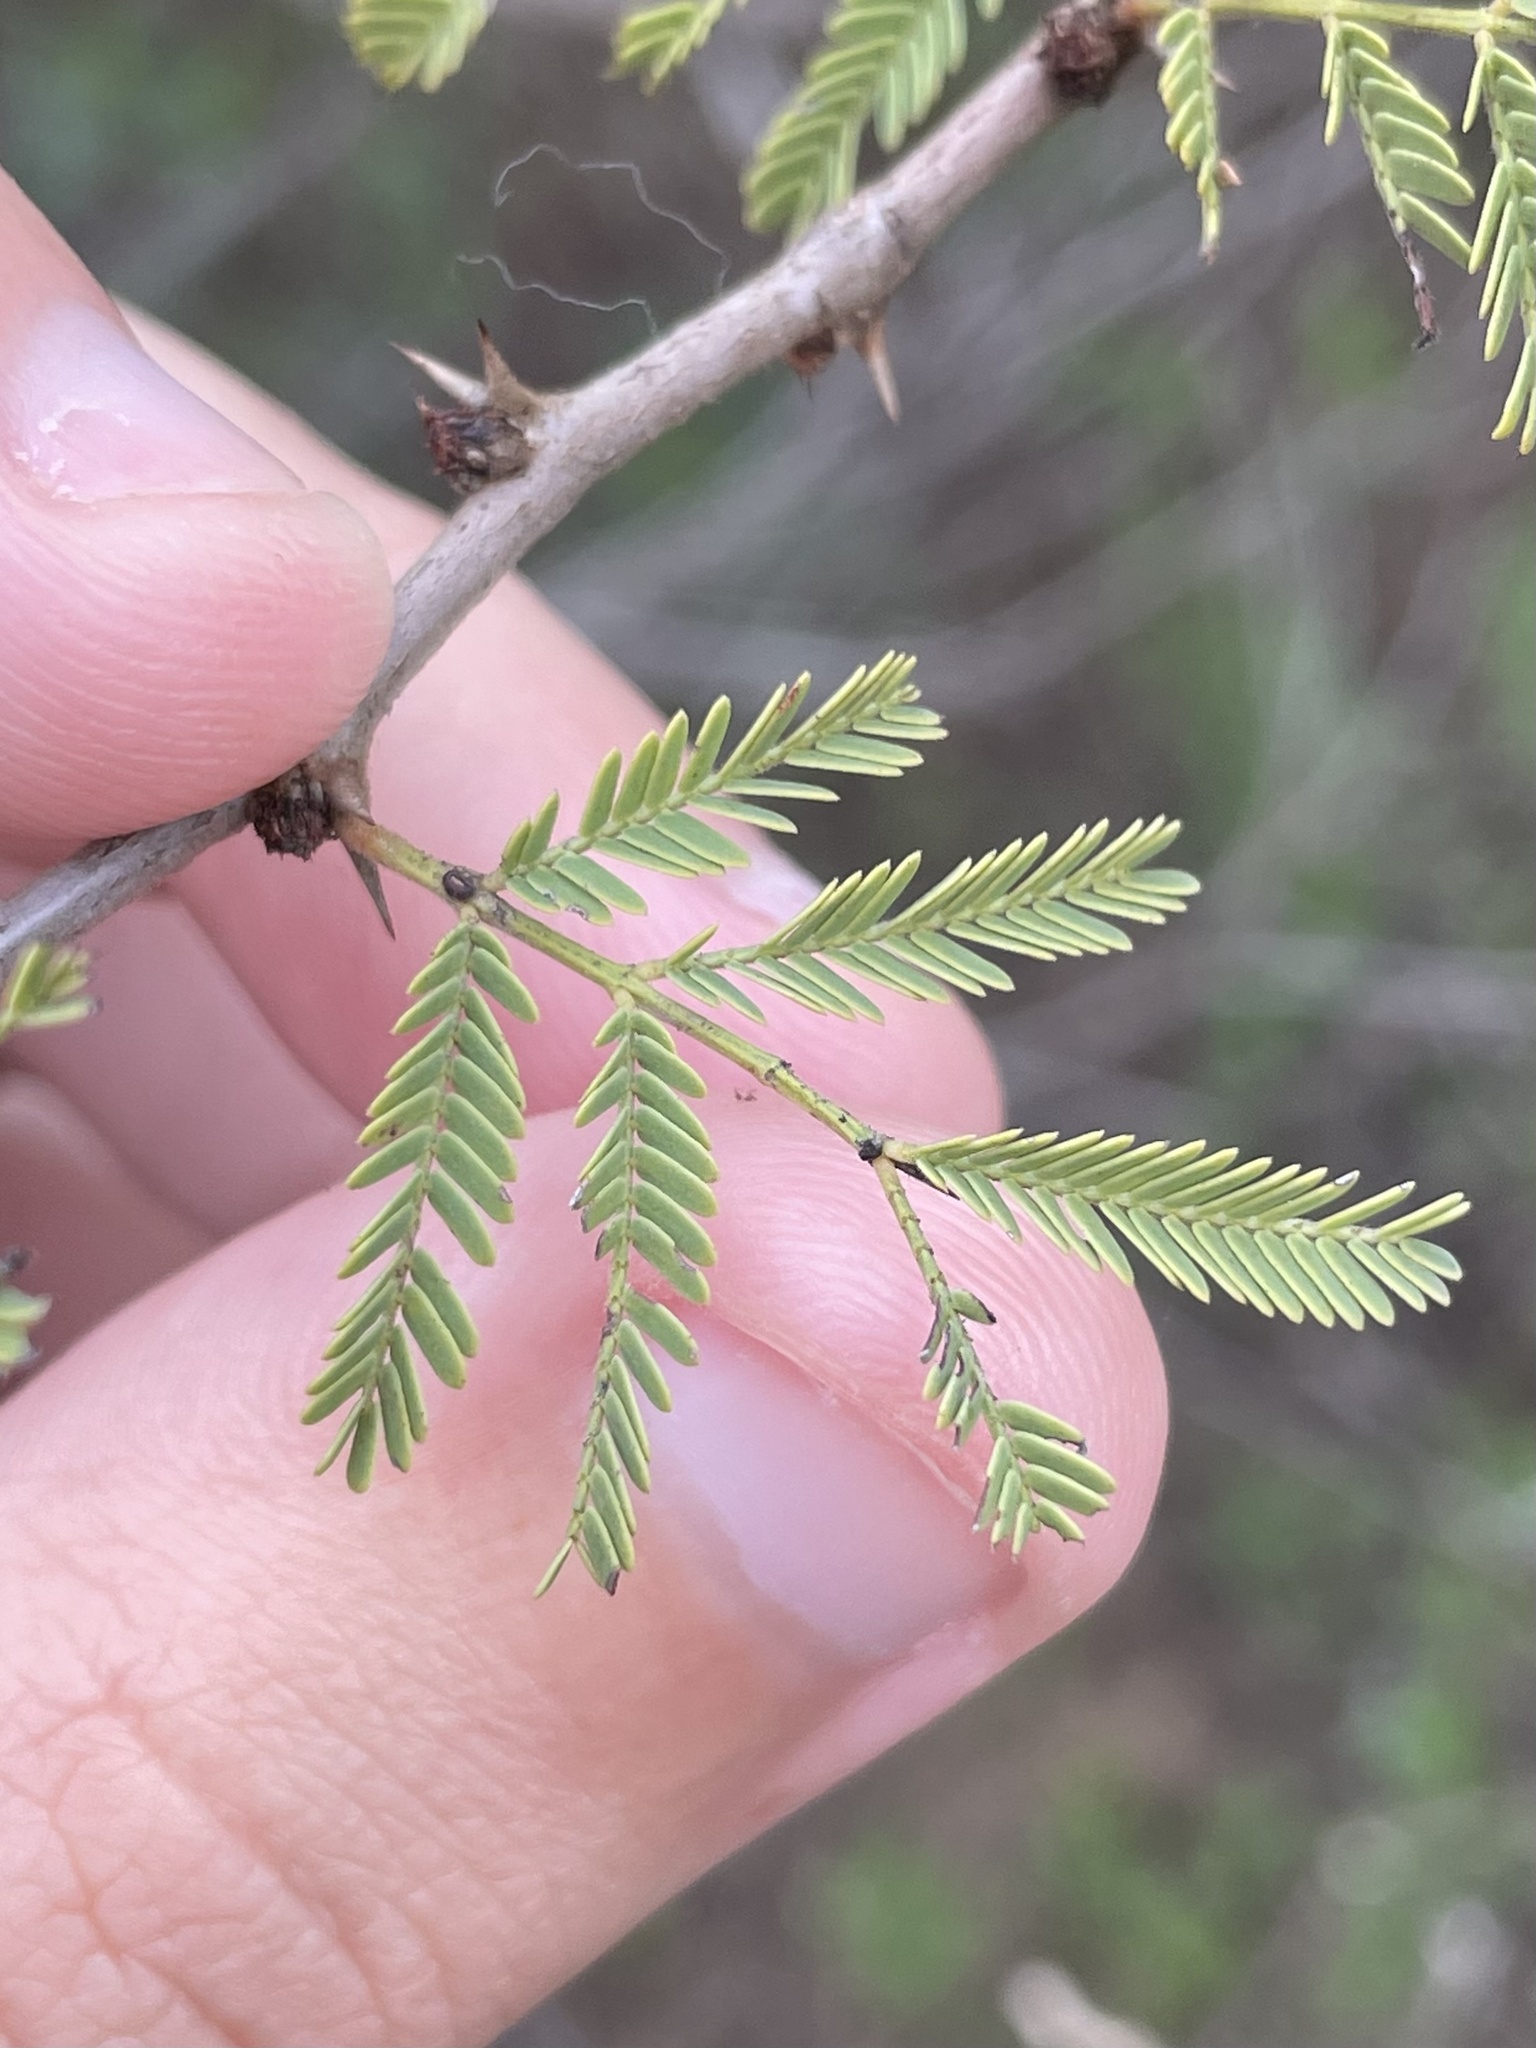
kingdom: Plantae
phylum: Tracheophyta
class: Magnoliopsida
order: Fabales
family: Fabaceae
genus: Vachellia
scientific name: Vachellia schaffneri
